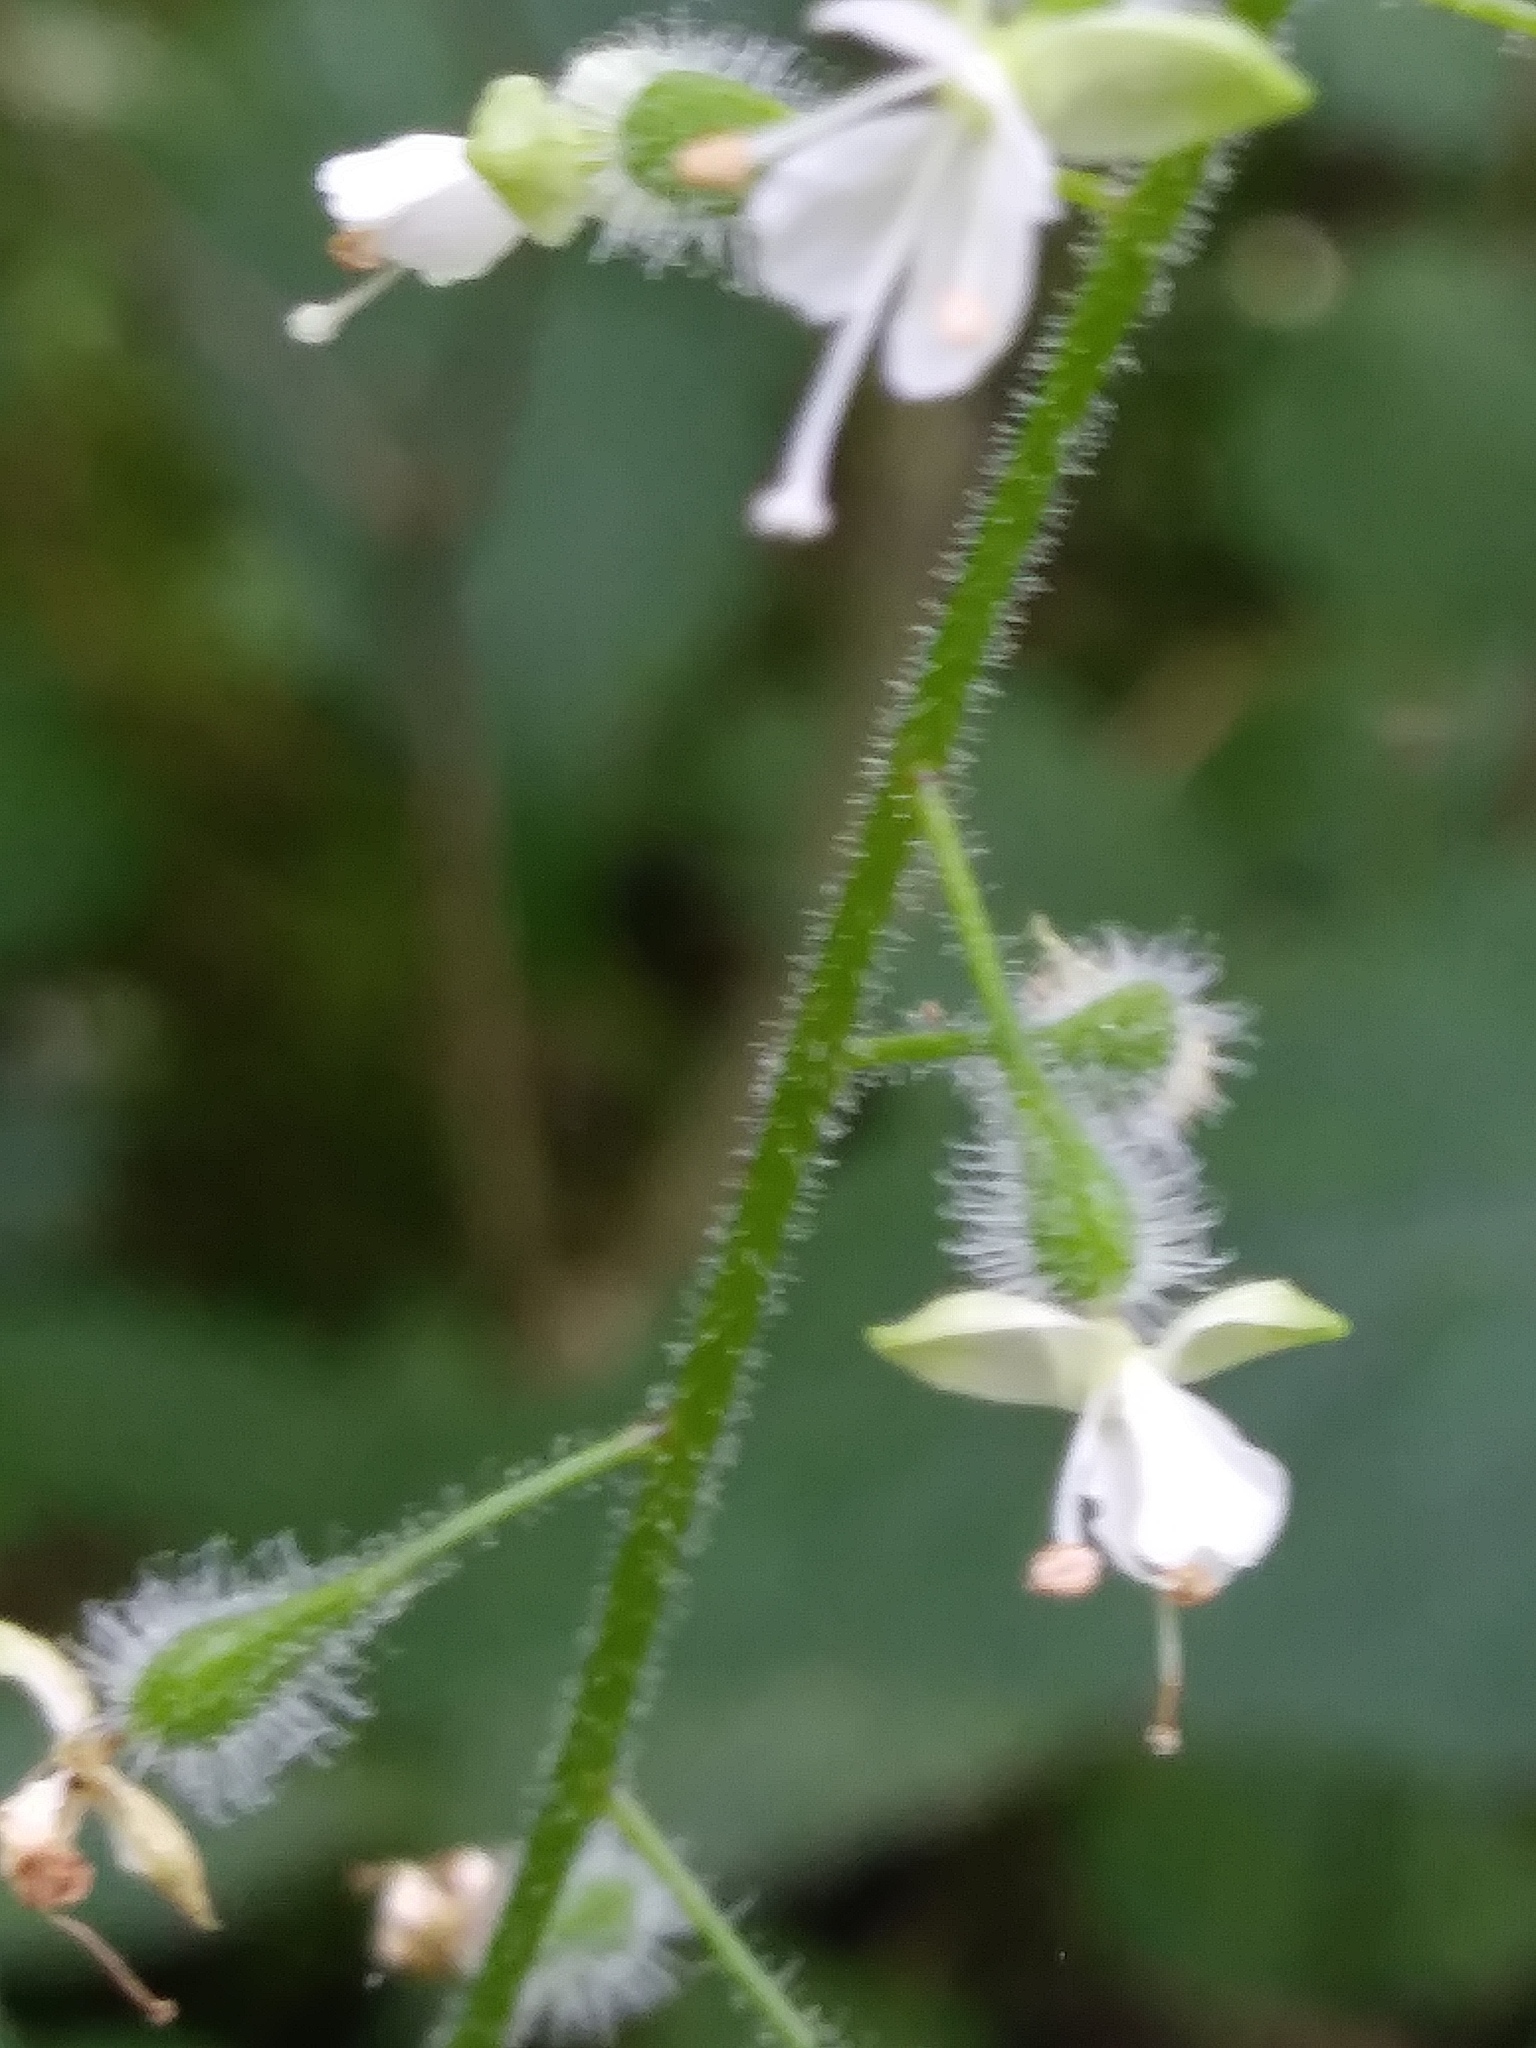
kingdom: Plantae
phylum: Tracheophyta
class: Magnoliopsida
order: Myrtales
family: Onagraceae
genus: Circaea
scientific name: Circaea canadensis
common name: Broad-leaved enchanter's nightshade
